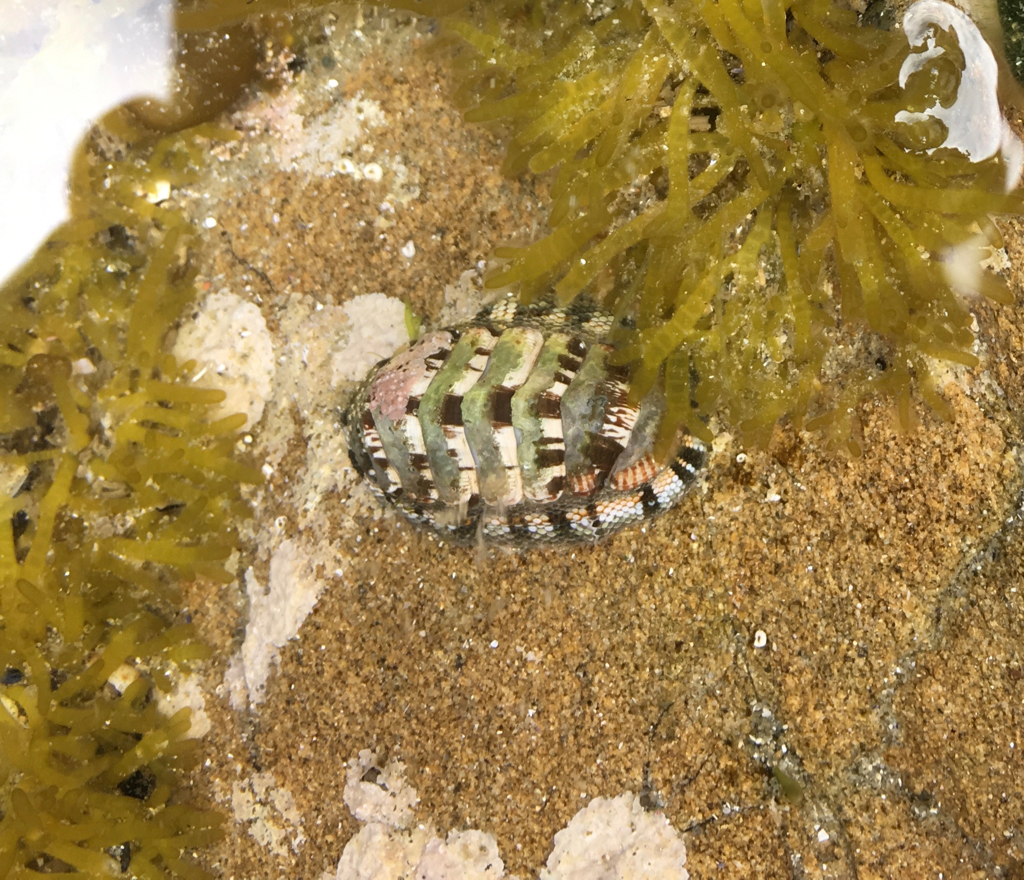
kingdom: Animalia
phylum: Mollusca
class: Polyplacophora
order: Chitonida
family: Chitonidae
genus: Sypharochiton
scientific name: Sypharochiton sinclairi
